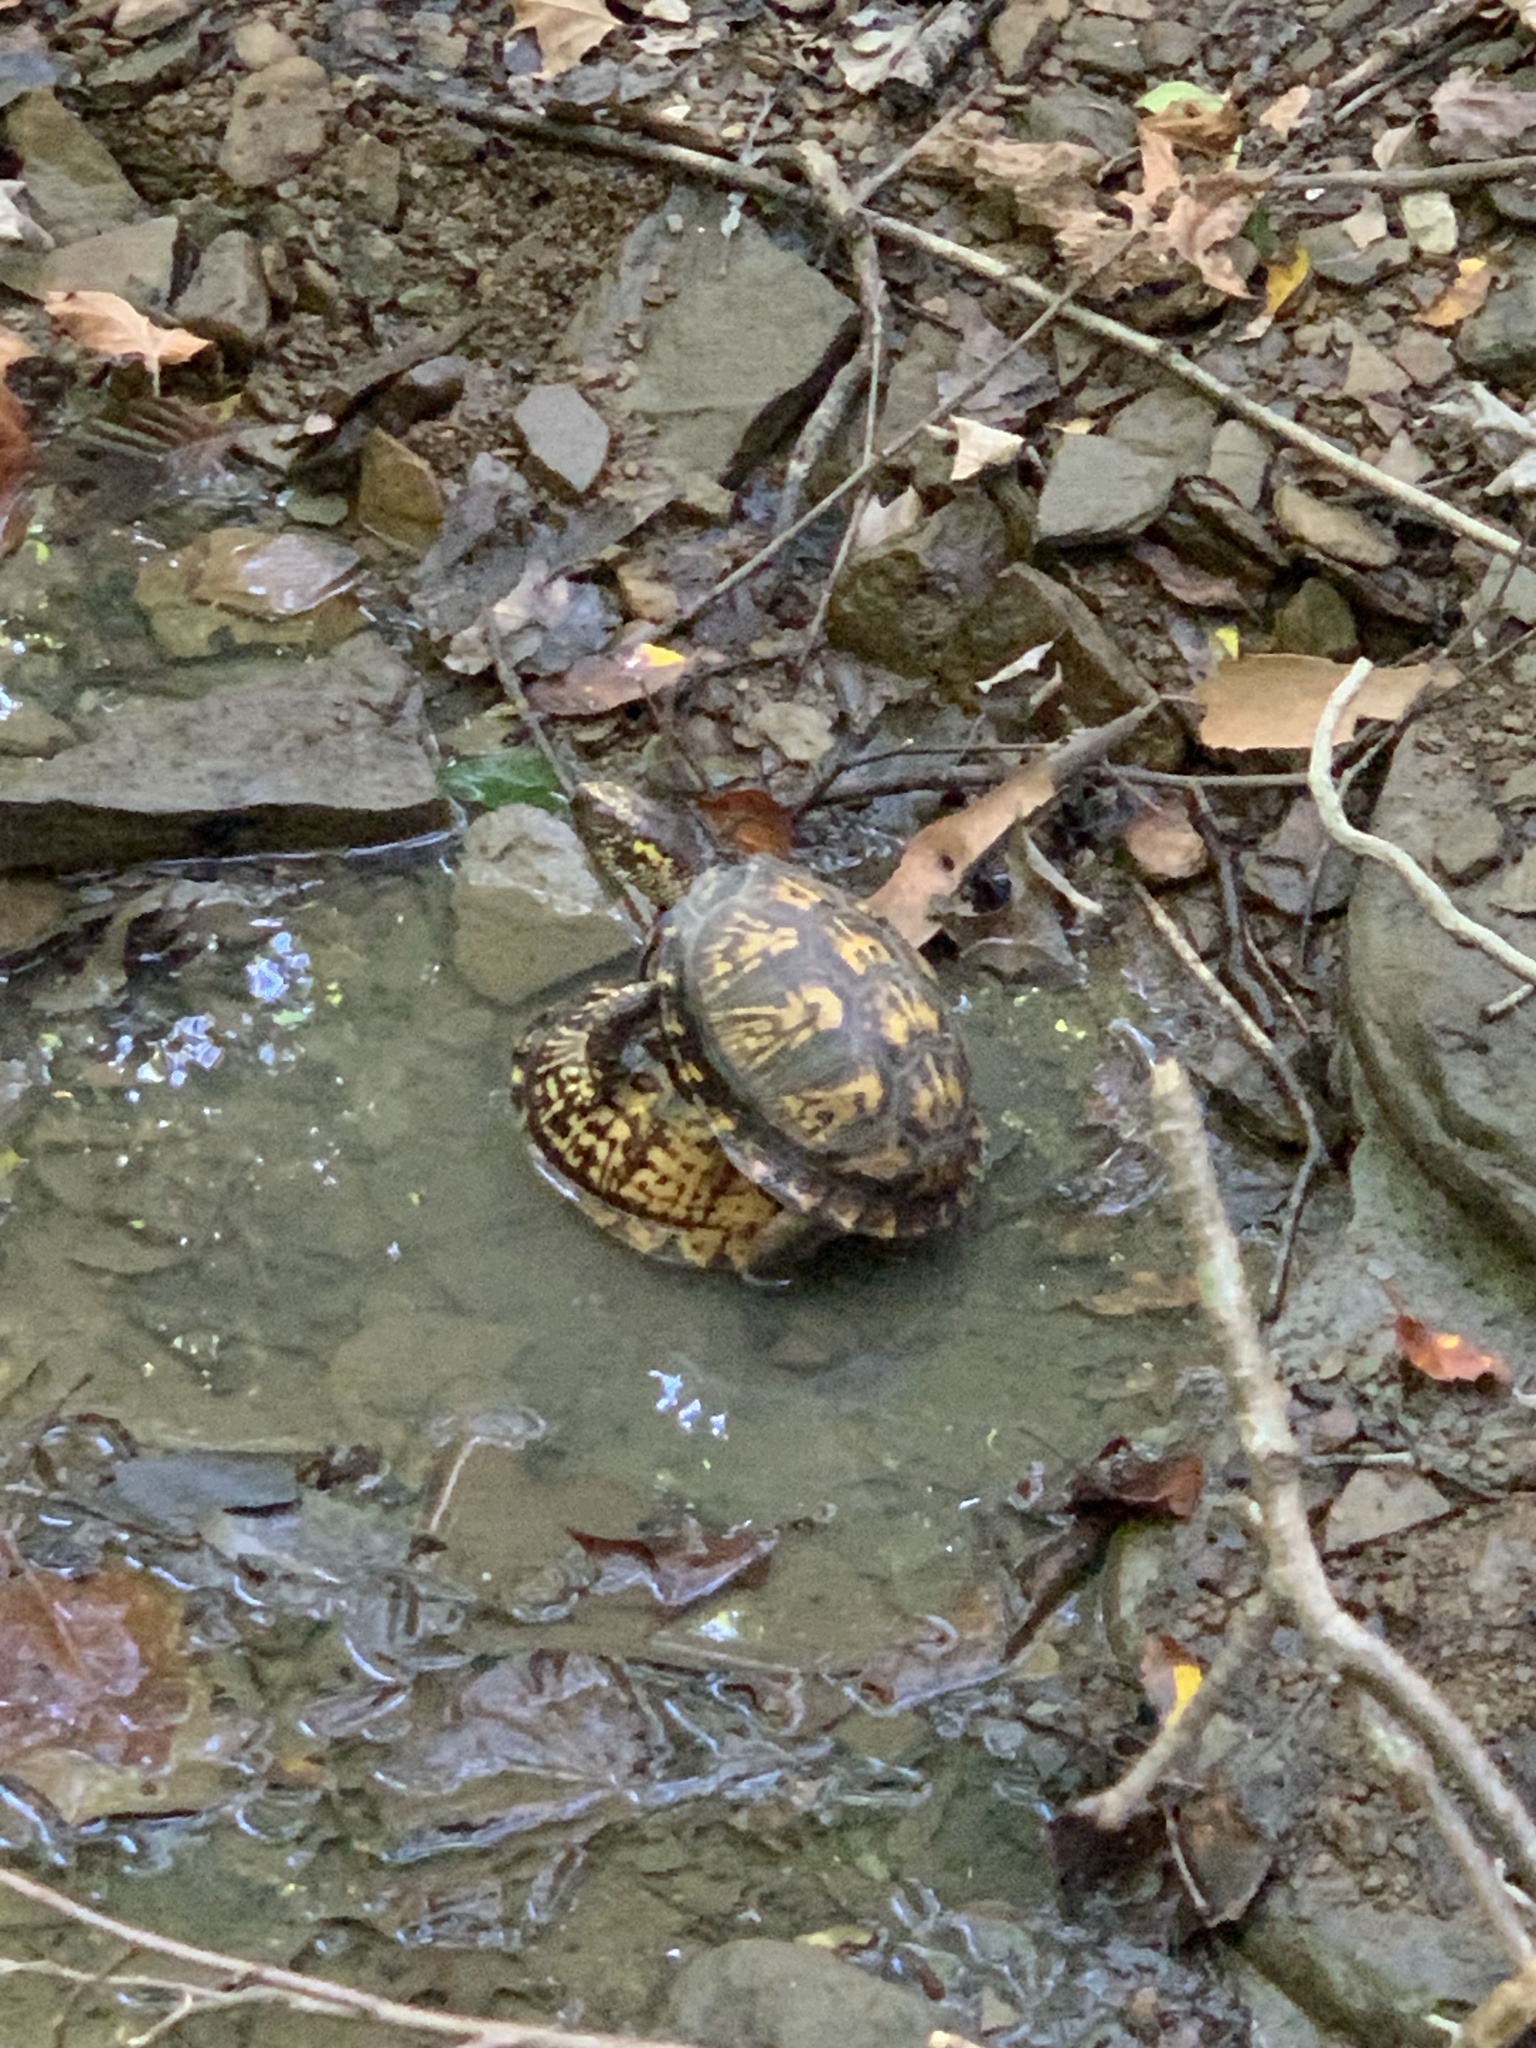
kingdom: Animalia
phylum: Chordata
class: Testudines
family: Emydidae
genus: Terrapene
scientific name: Terrapene carolina
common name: Common box turtle
